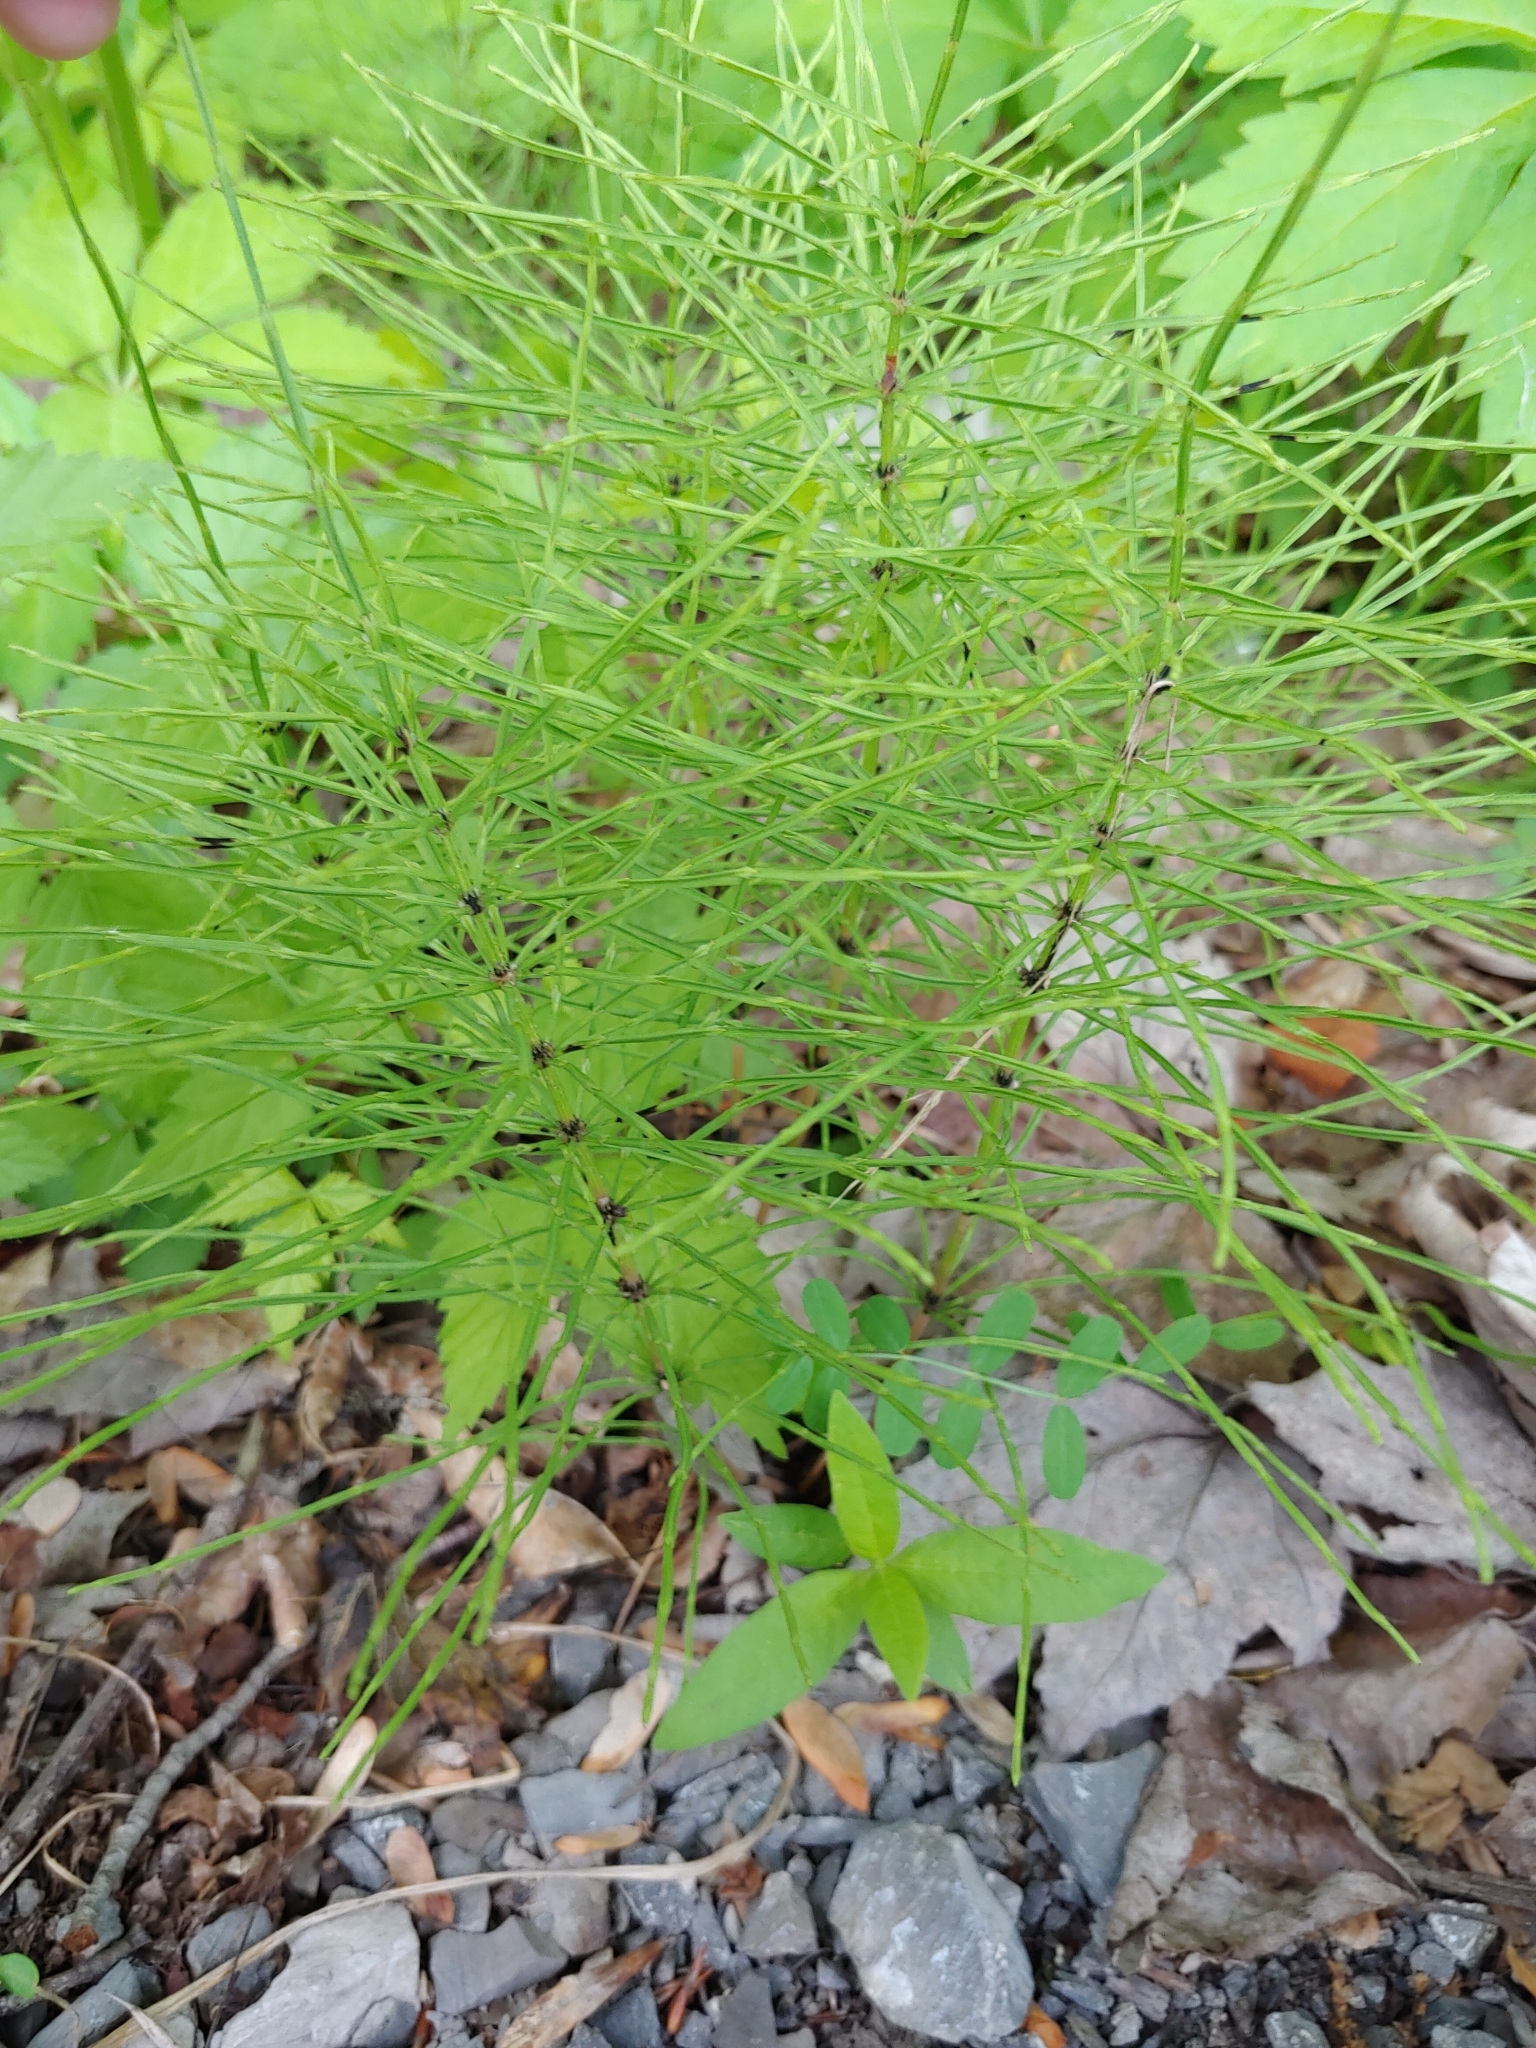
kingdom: Plantae
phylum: Tracheophyta
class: Polypodiopsida
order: Equisetales
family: Equisetaceae
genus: Equisetum
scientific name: Equisetum arvense
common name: Field horsetail
